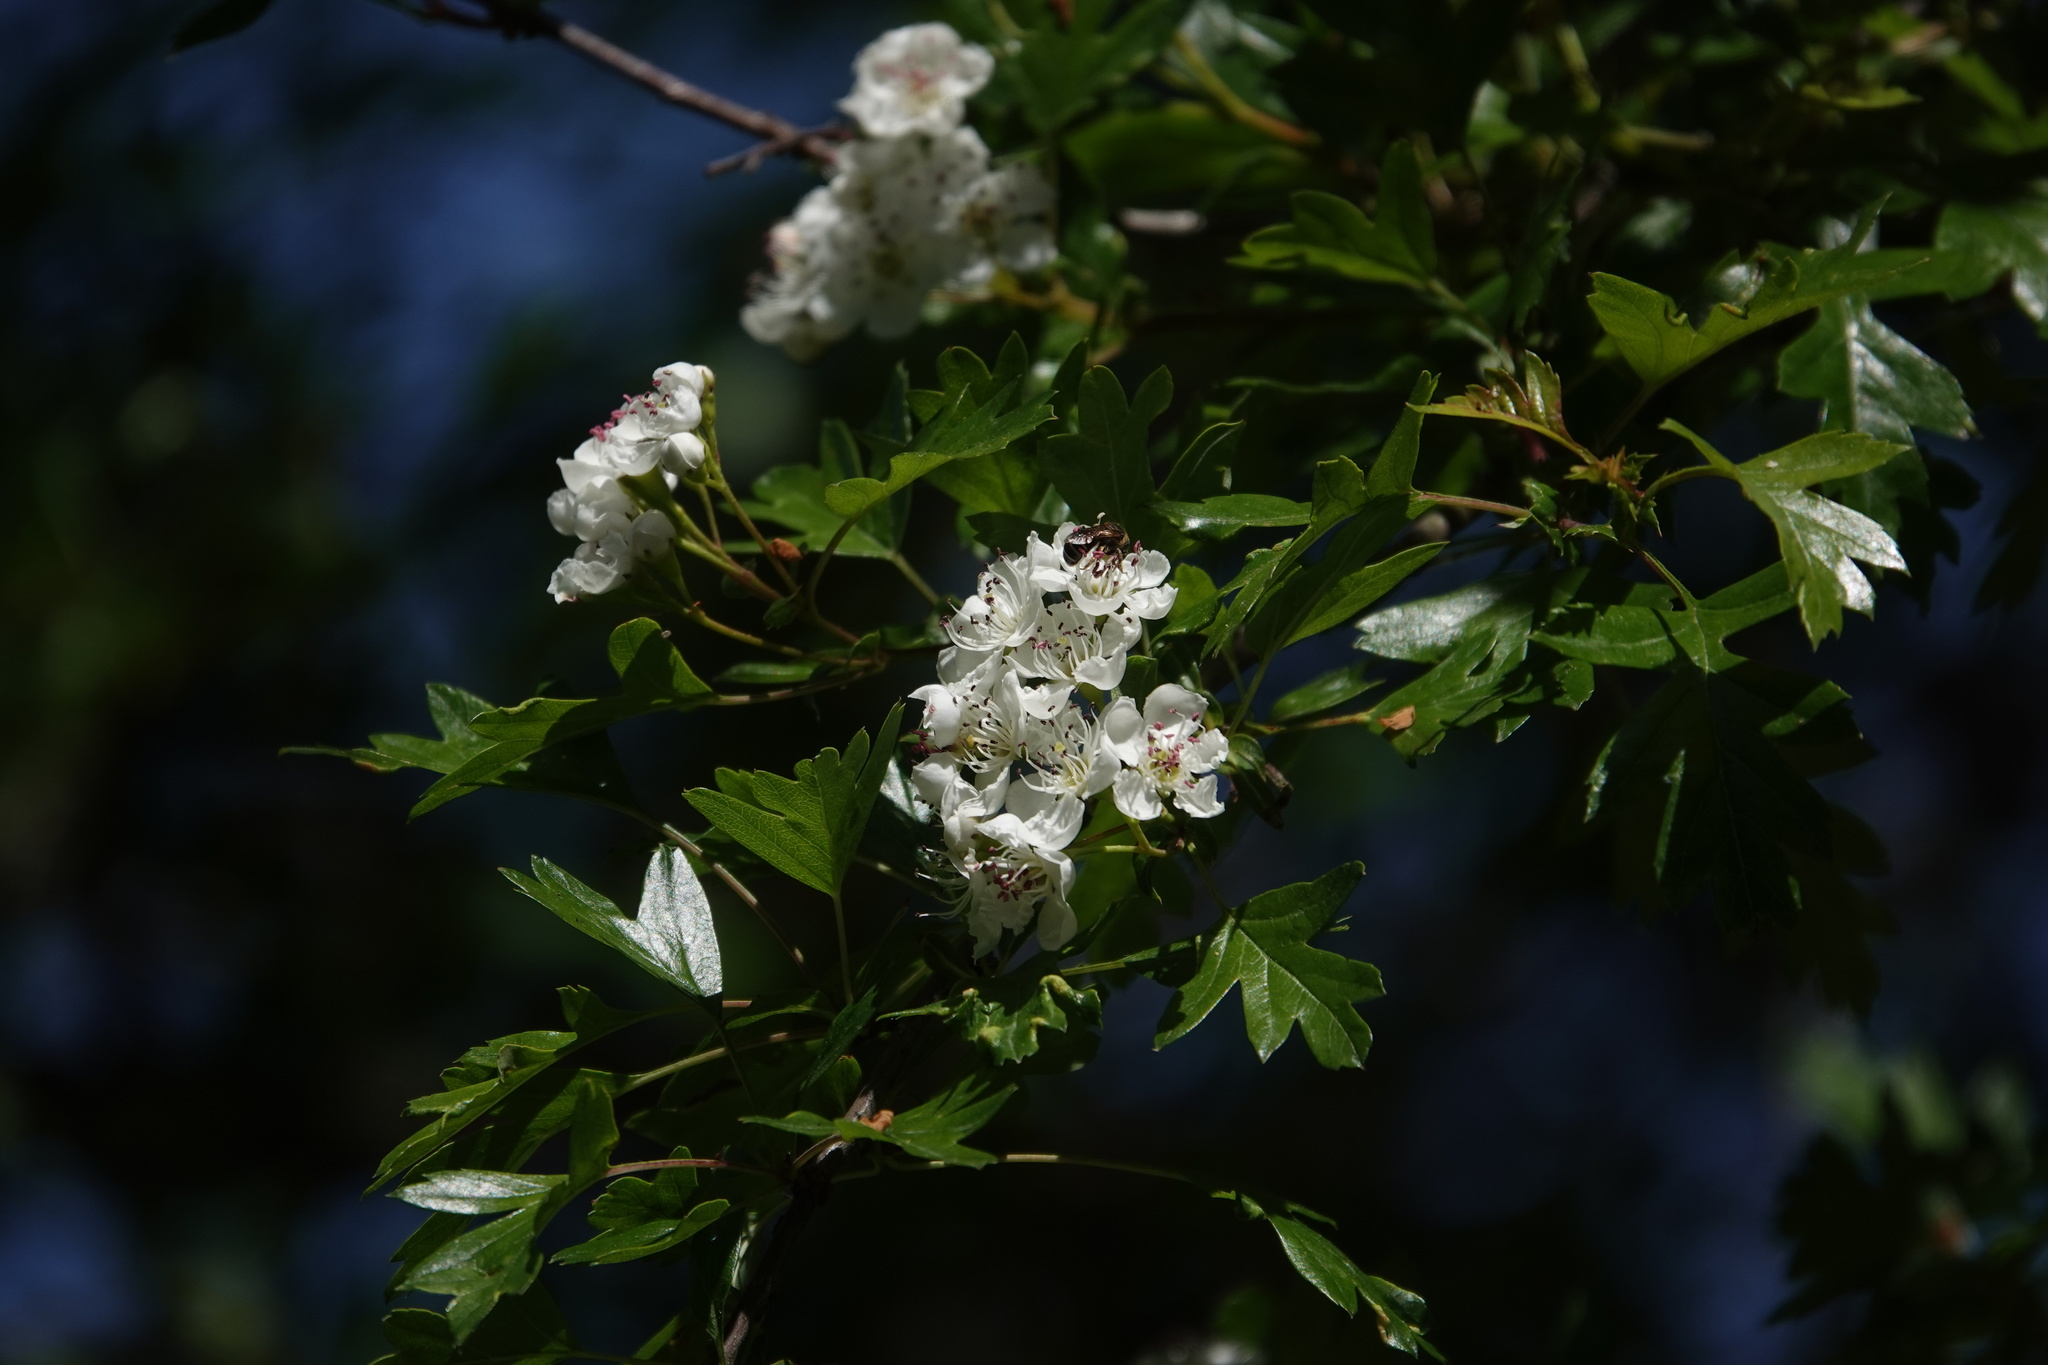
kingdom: Plantae
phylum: Tracheophyta
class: Magnoliopsida
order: Rosales
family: Rosaceae
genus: Crataegus
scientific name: Crataegus monogyna
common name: Hawthorn
